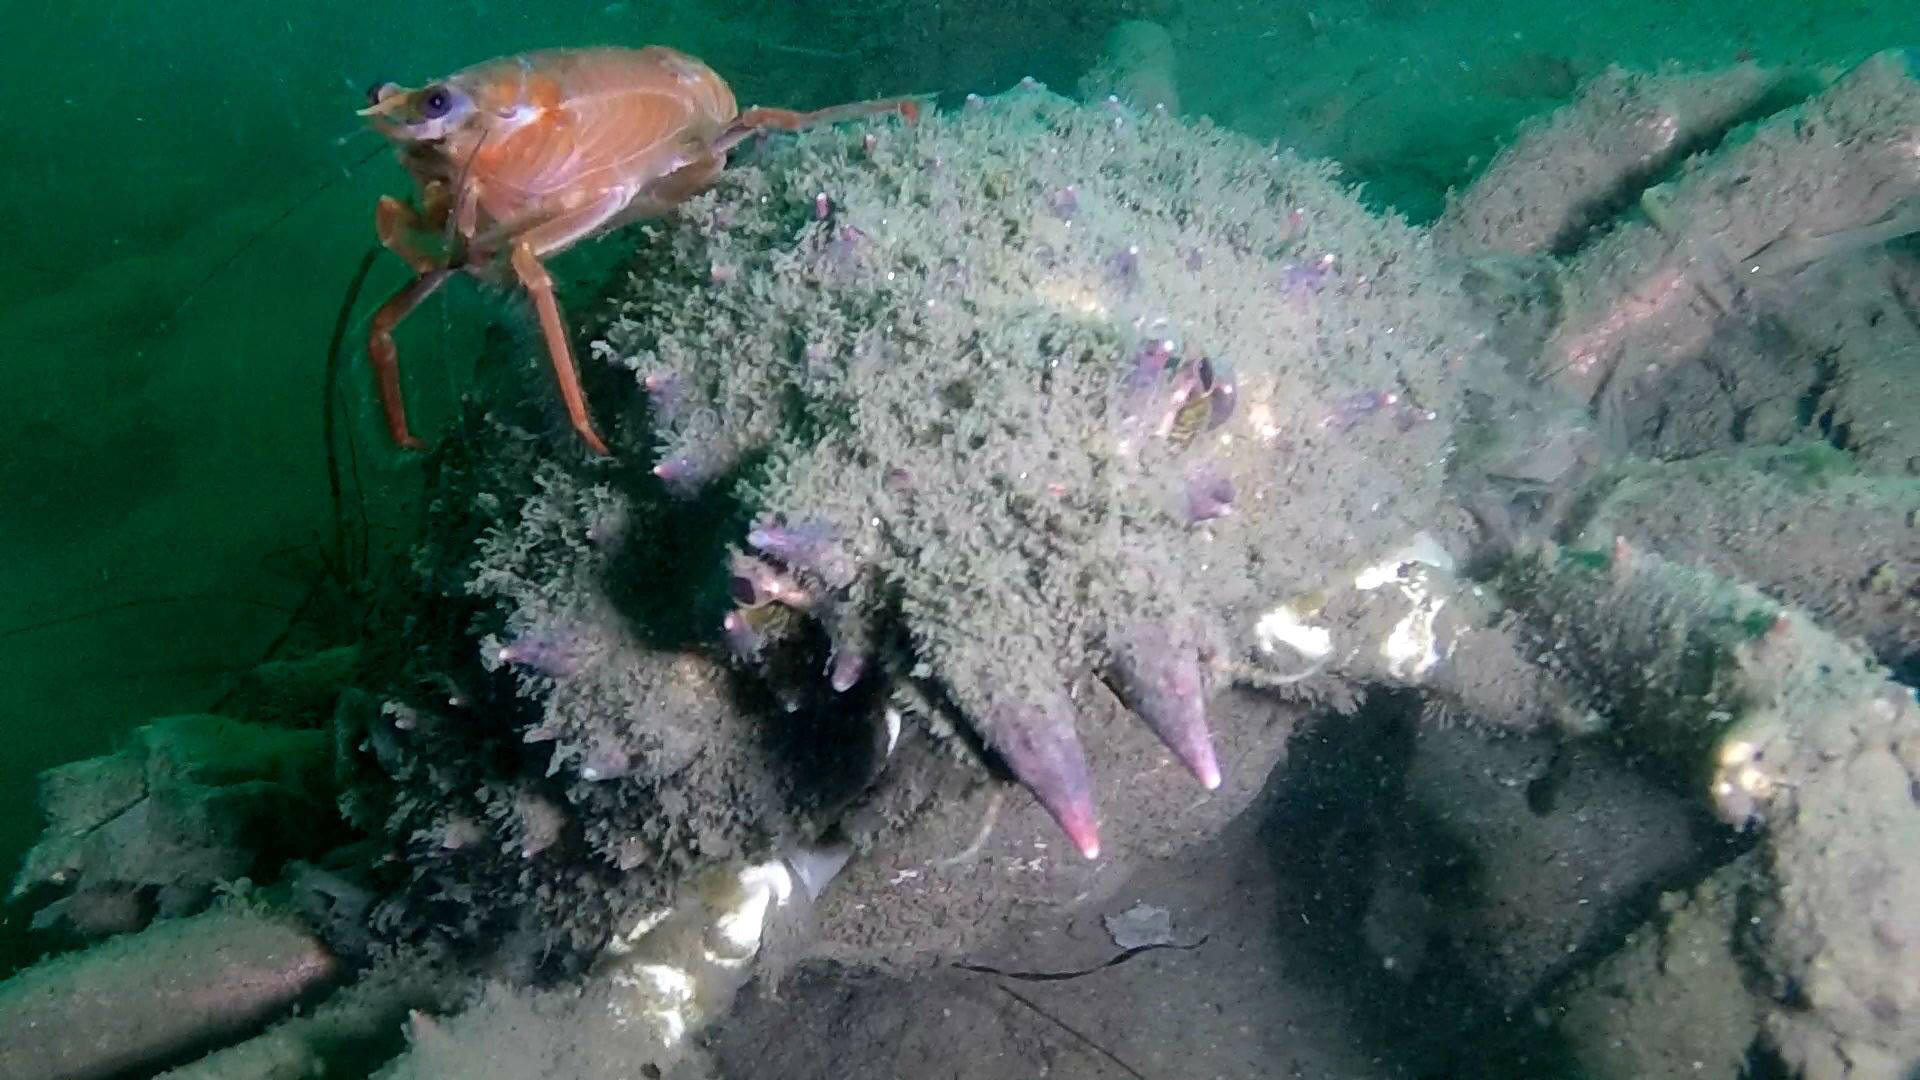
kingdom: Animalia
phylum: Arthropoda
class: Malacostraca
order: Decapoda
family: Epialtidae
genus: Loxorhynchus
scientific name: Loxorhynchus grandis
